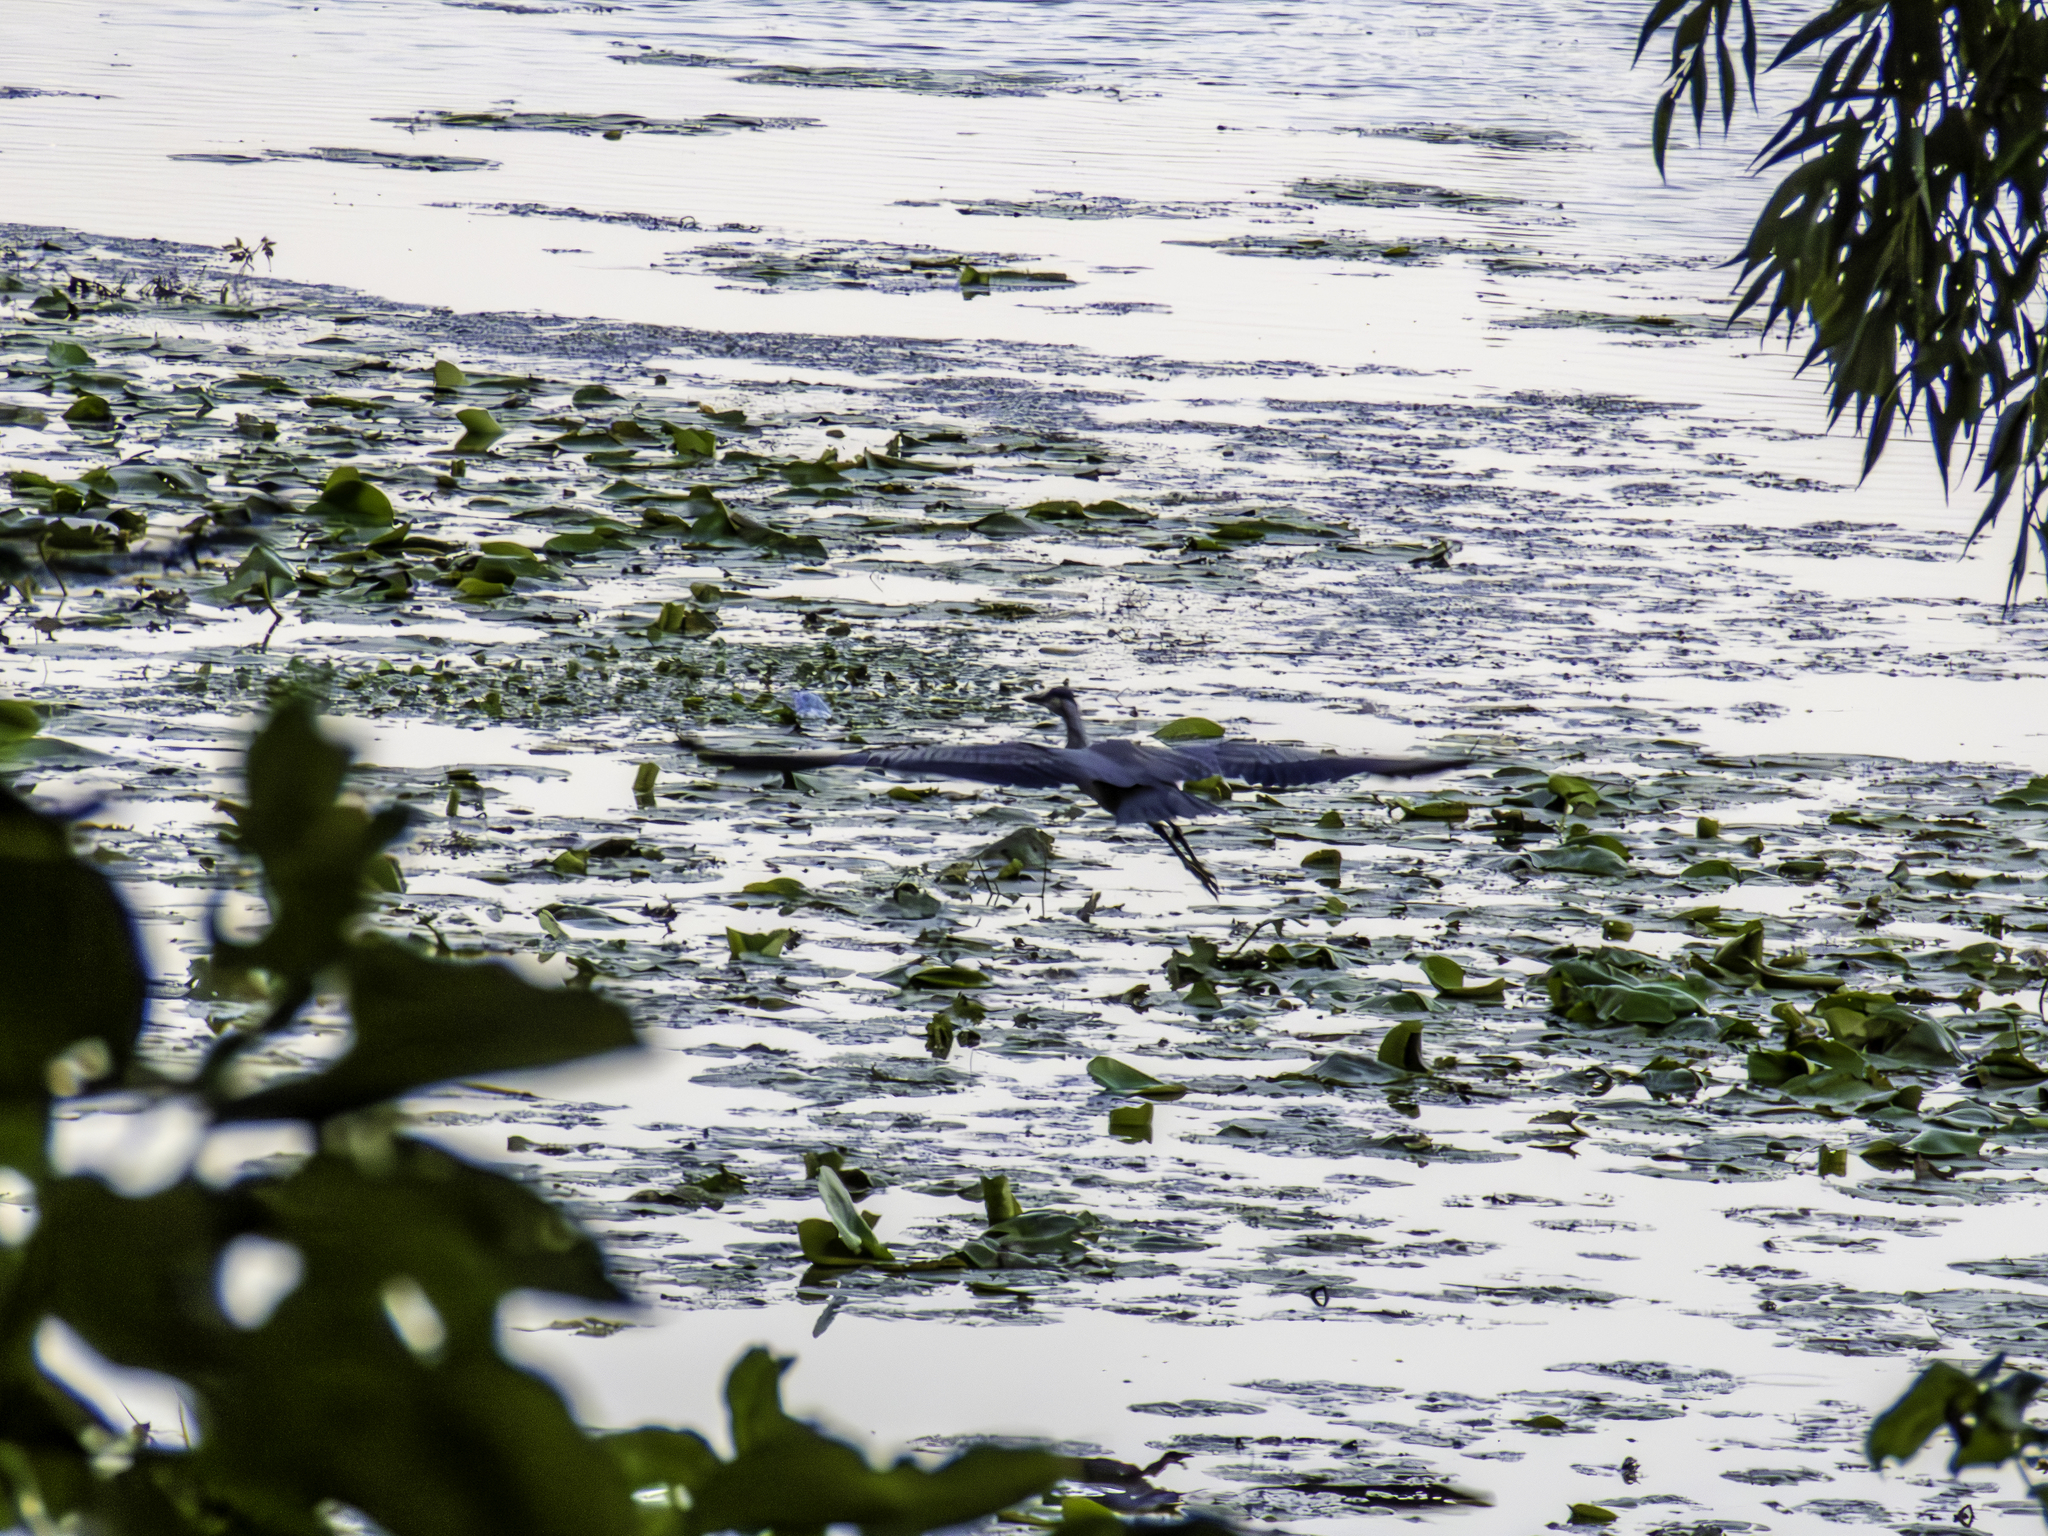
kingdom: Animalia
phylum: Chordata
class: Aves
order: Pelecaniformes
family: Ardeidae
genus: Ardea
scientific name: Ardea herodias
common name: Great blue heron
